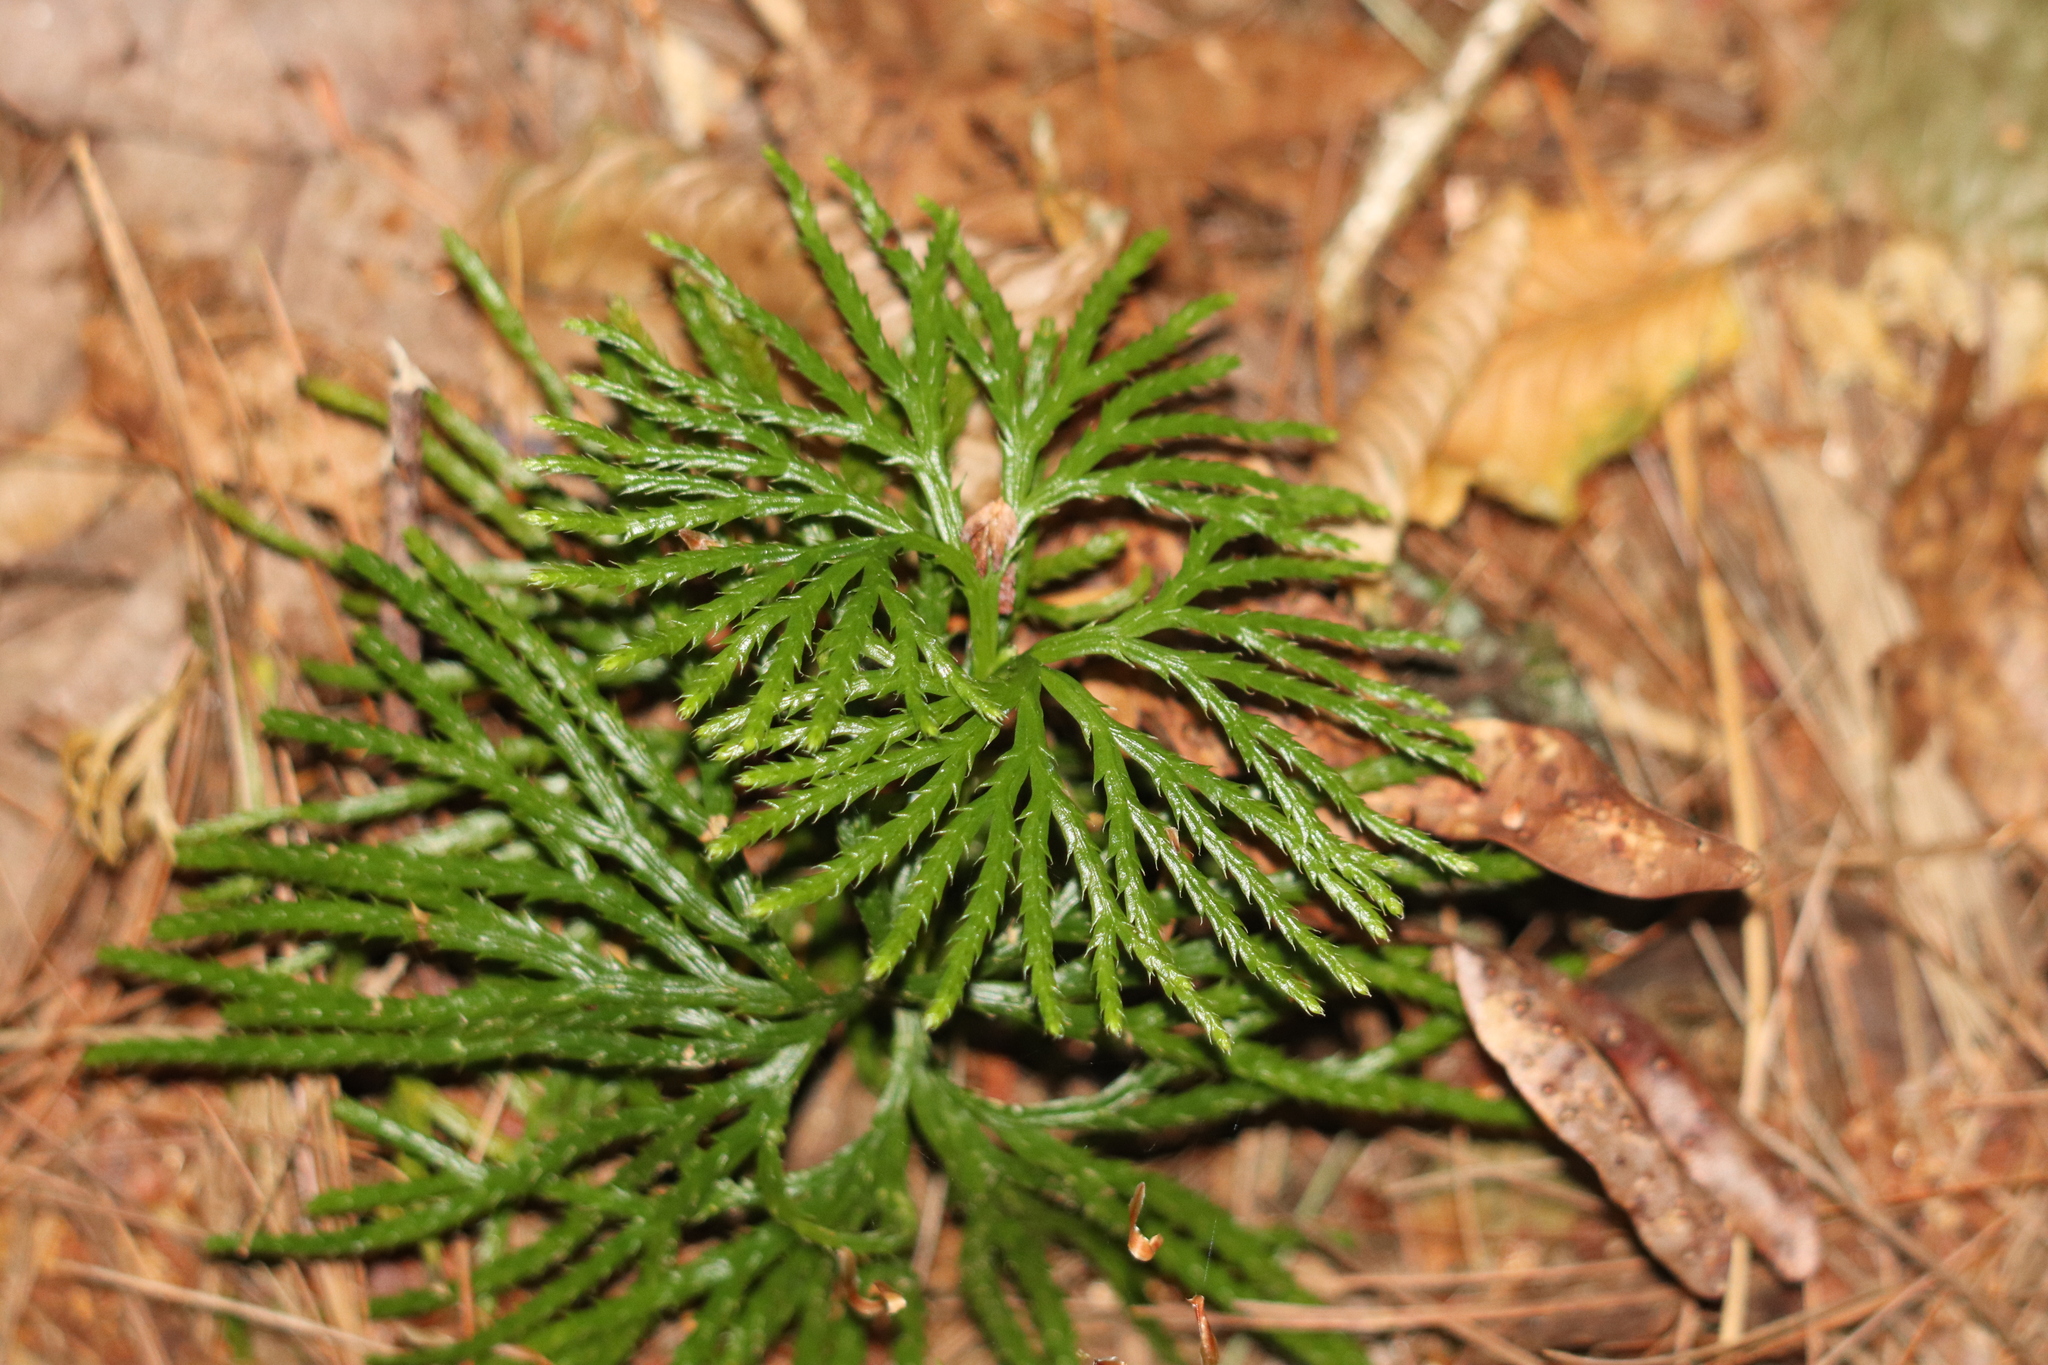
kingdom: Plantae
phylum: Tracheophyta
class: Lycopodiopsida
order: Lycopodiales
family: Lycopodiaceae
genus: Diphasiastrum
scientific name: Diphasiastrum digitatum
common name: Southern running-pine
